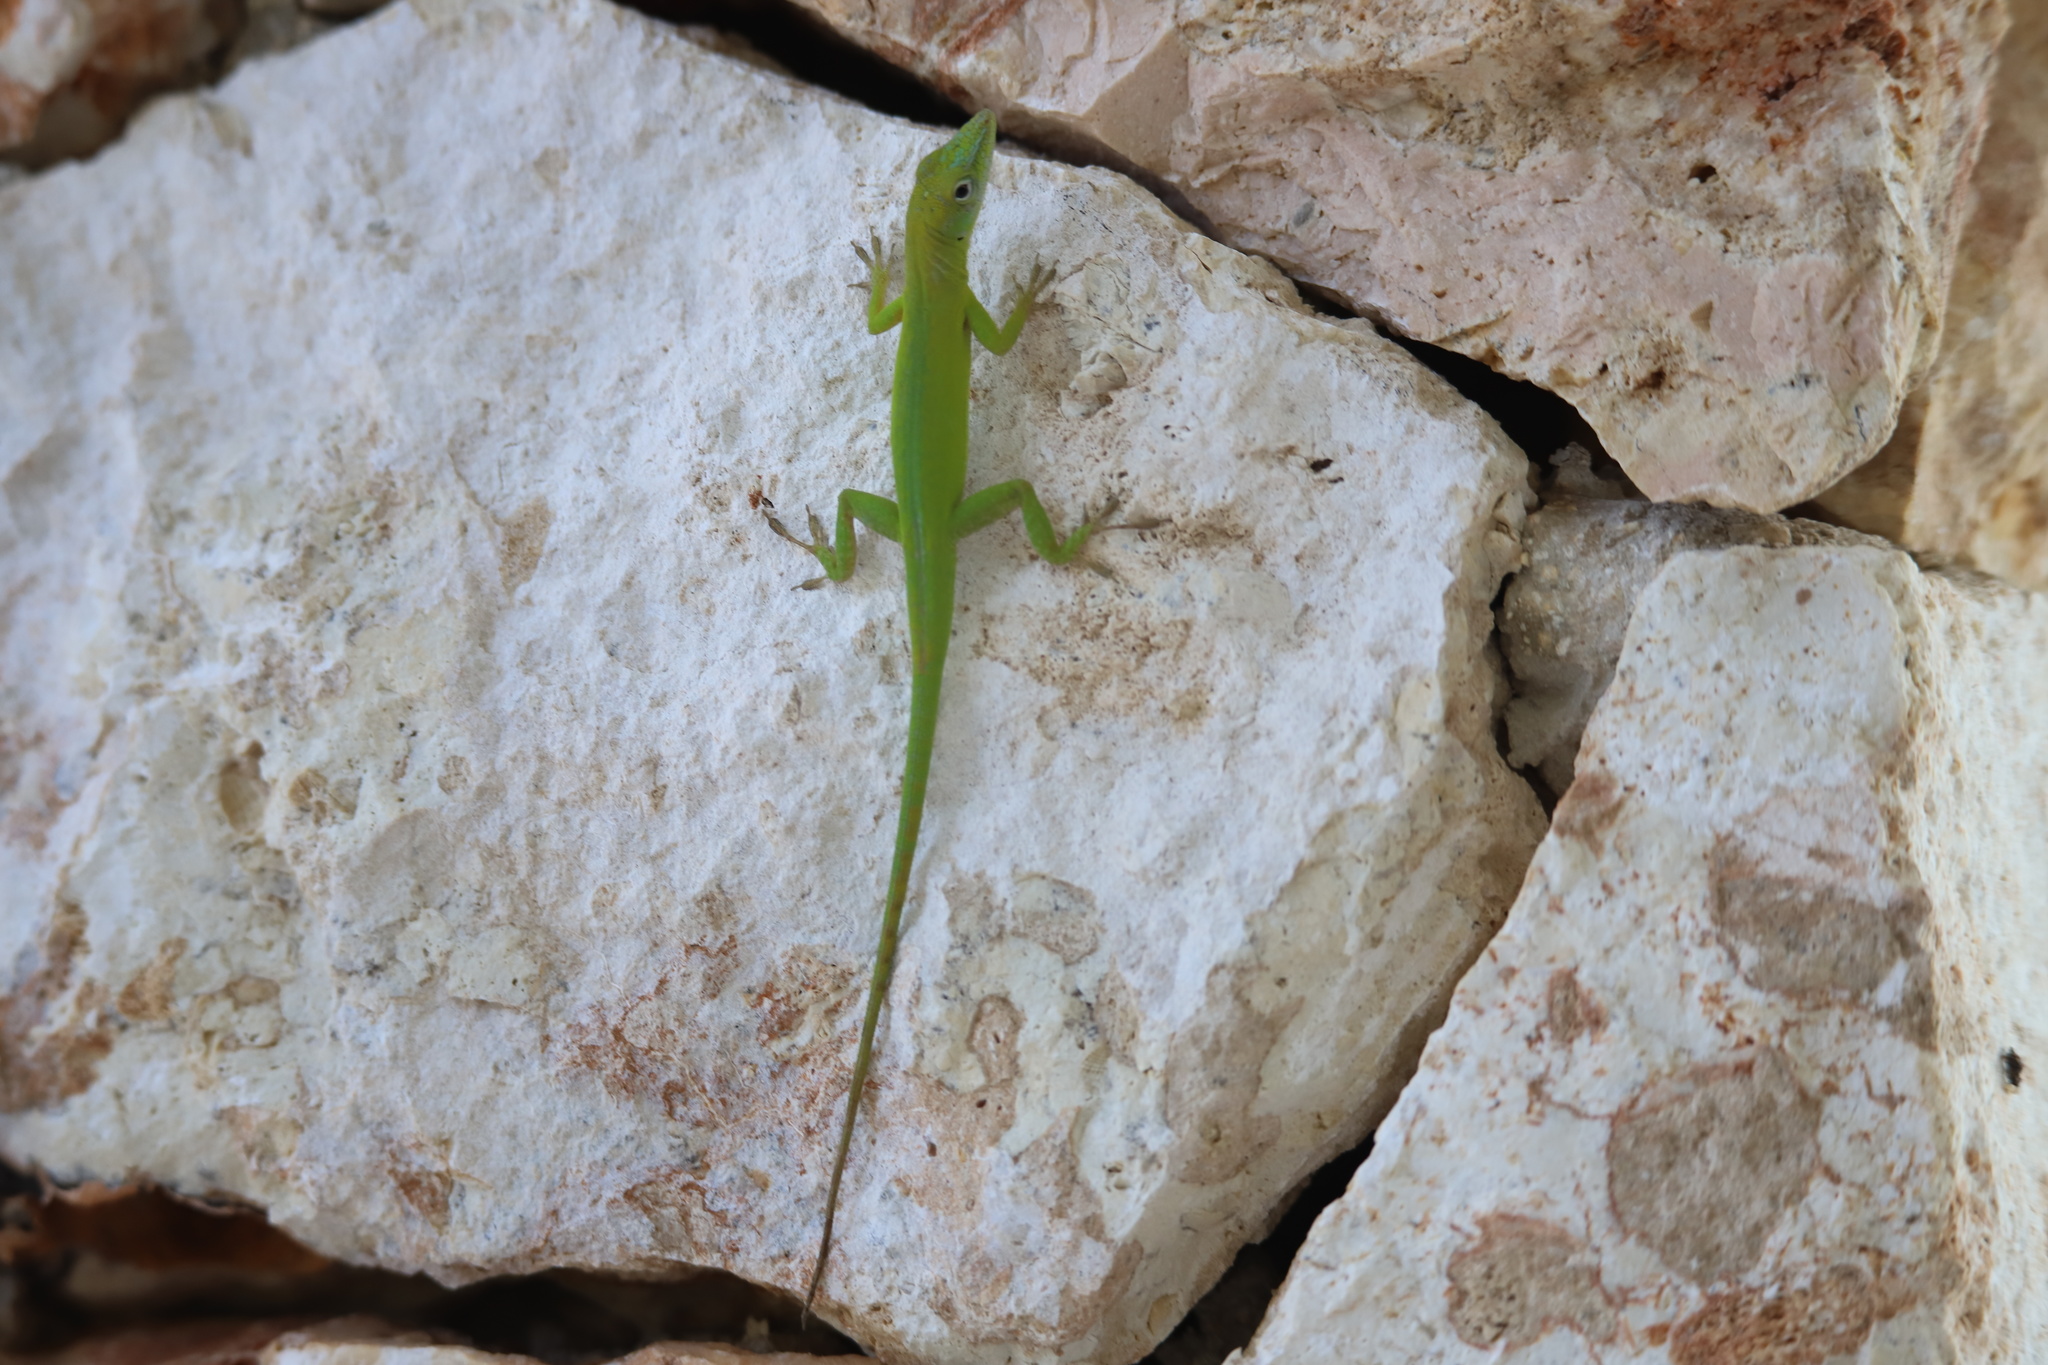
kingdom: Animalia
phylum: Chordata
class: Squamata
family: Dactyloidae
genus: Anolis
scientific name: Anolis callainus
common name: Dominican green anole
